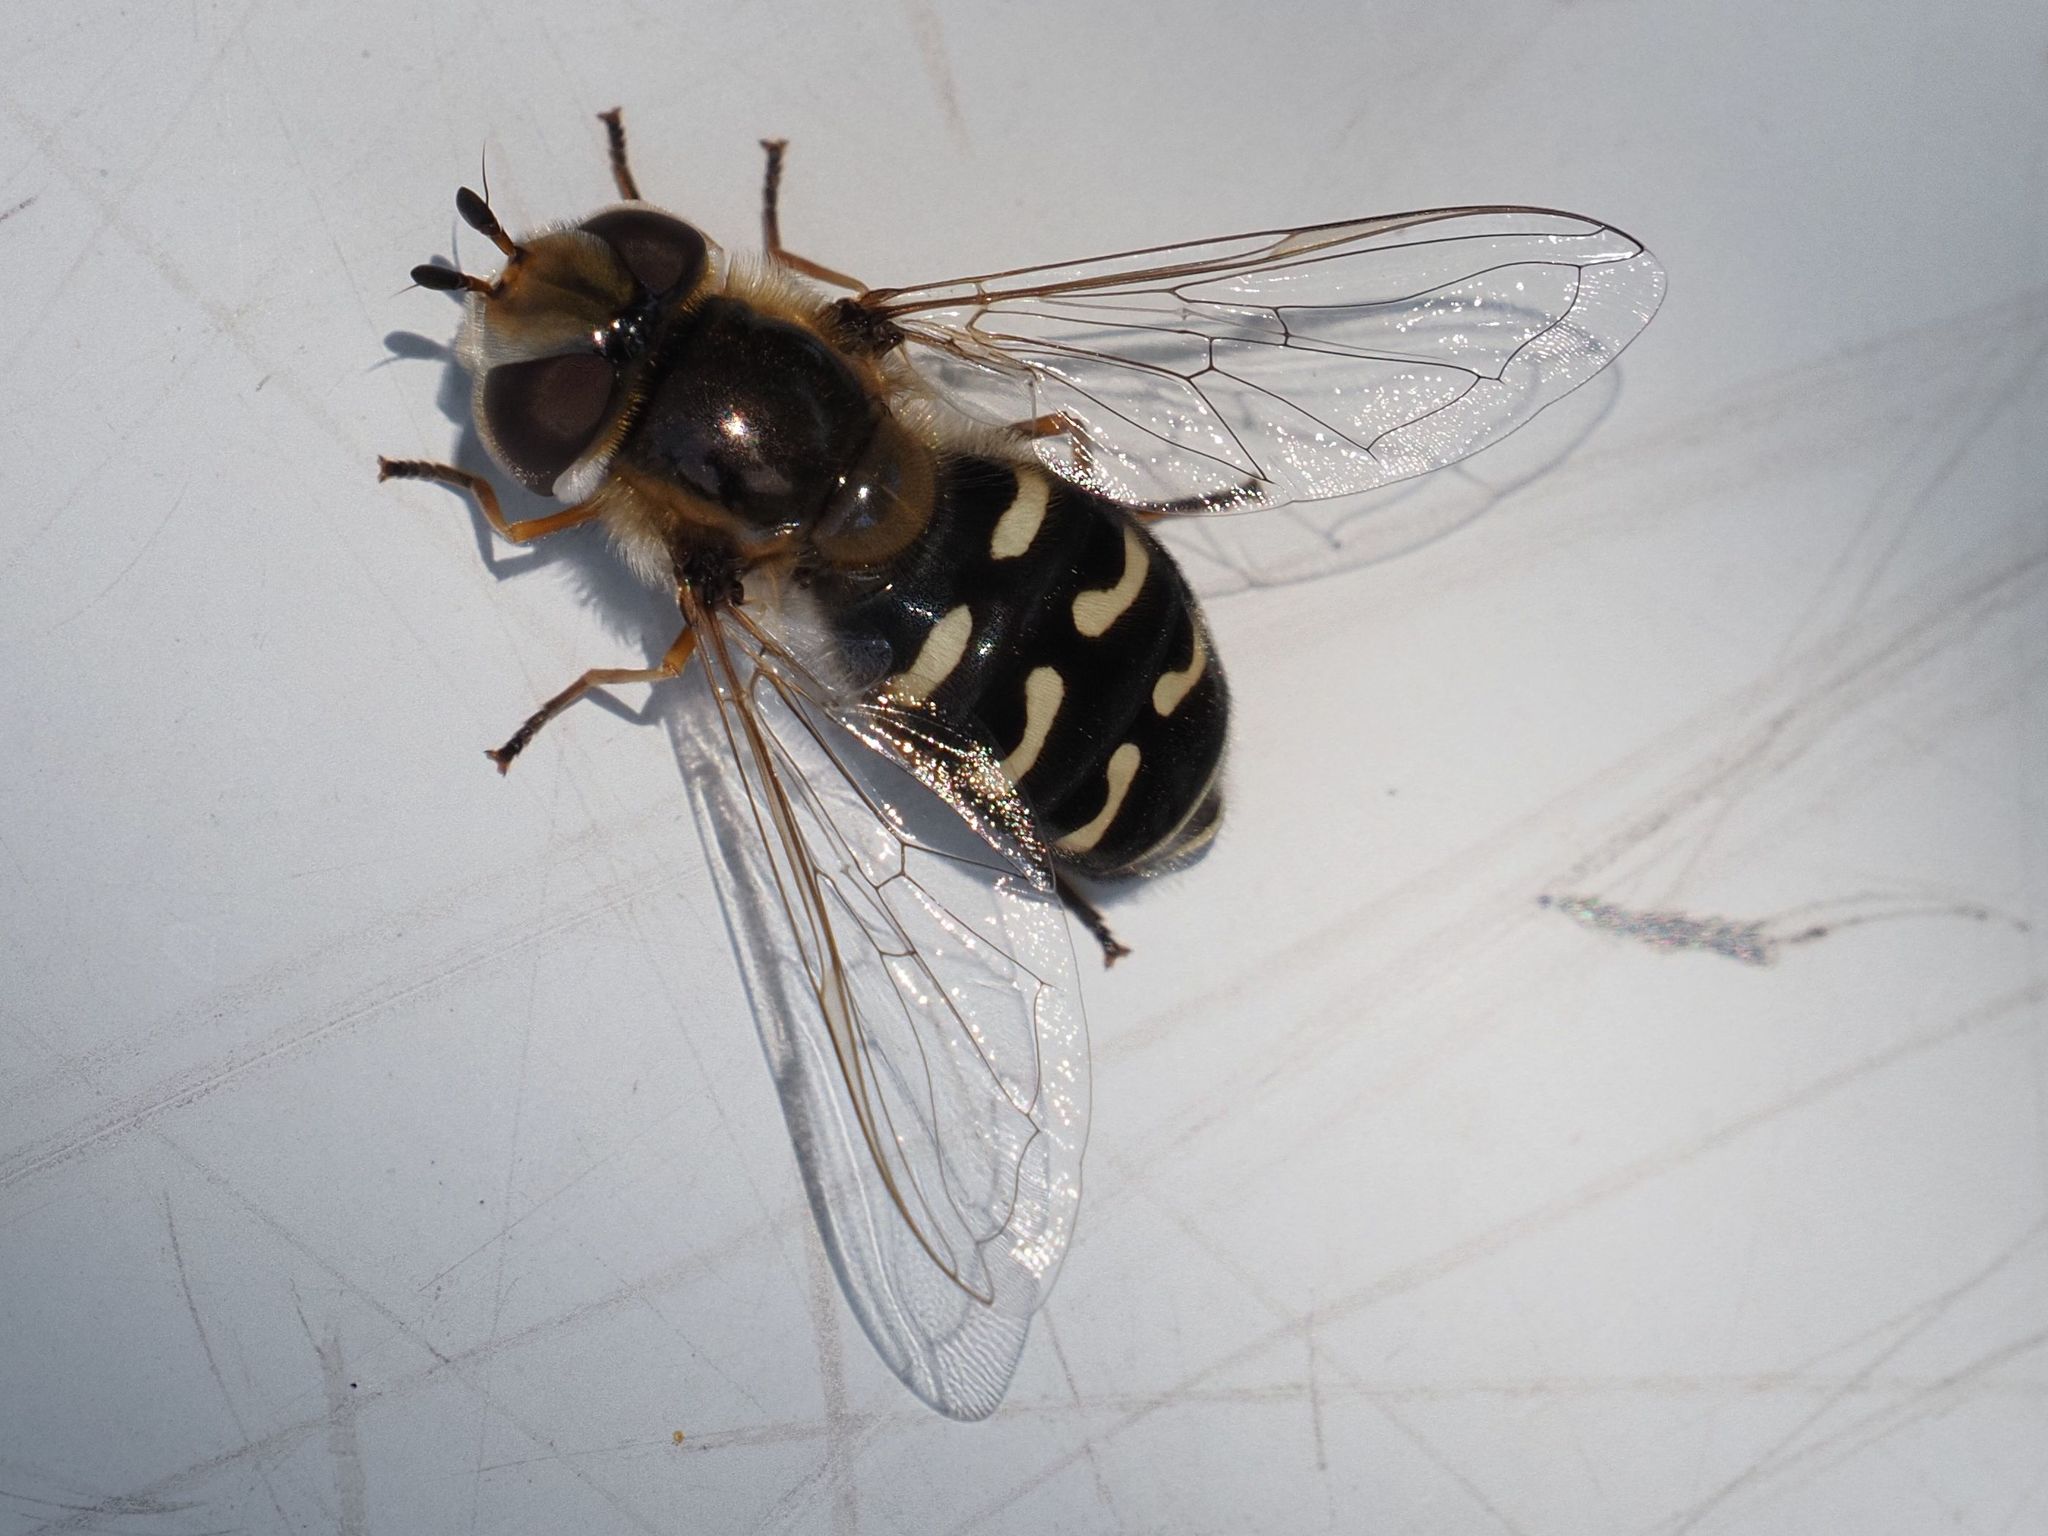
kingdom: Animalia
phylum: Arthropoda
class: Insecta
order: Diptera
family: Syrphidae
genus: Scaeva
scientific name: Scaeva pyrastri
